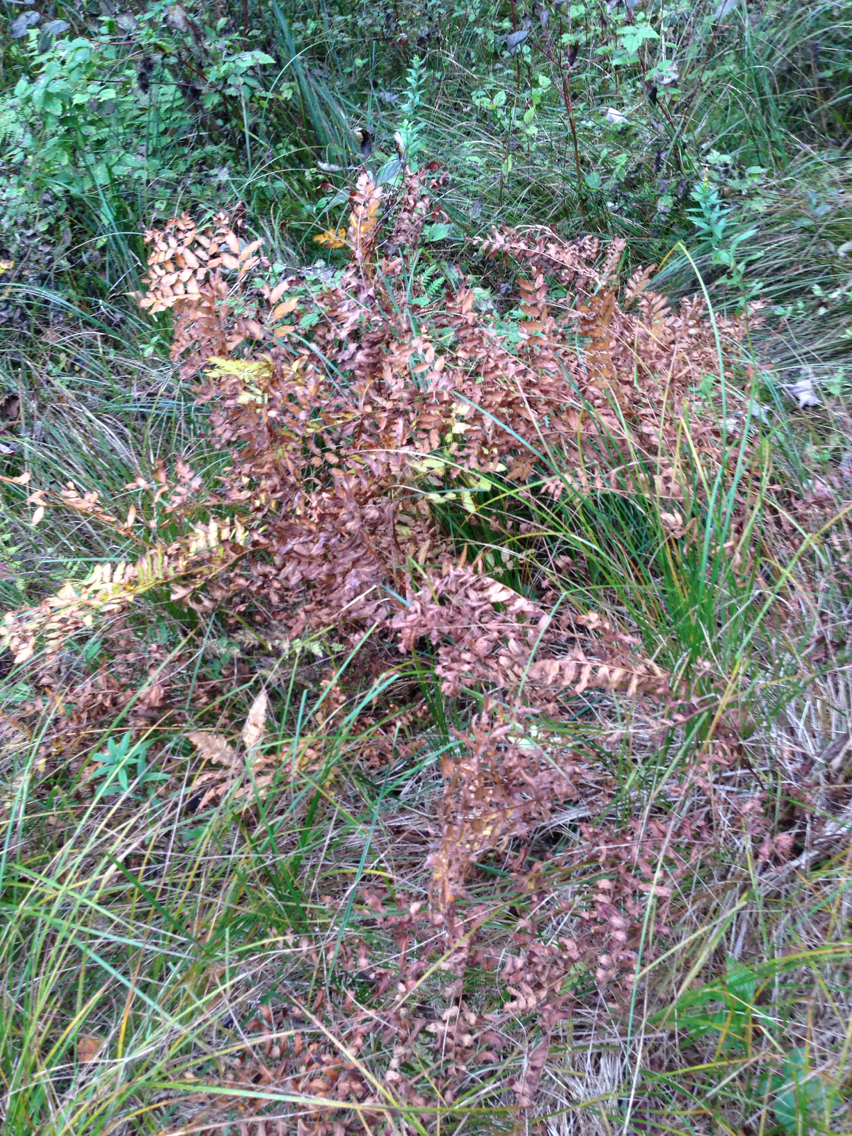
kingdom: Plantae
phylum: Tracheophyta
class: Polypodiopsida
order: Osmundales
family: Osmundaceae
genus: Osmunda
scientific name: Osmunda spectabilis
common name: American royal fern
